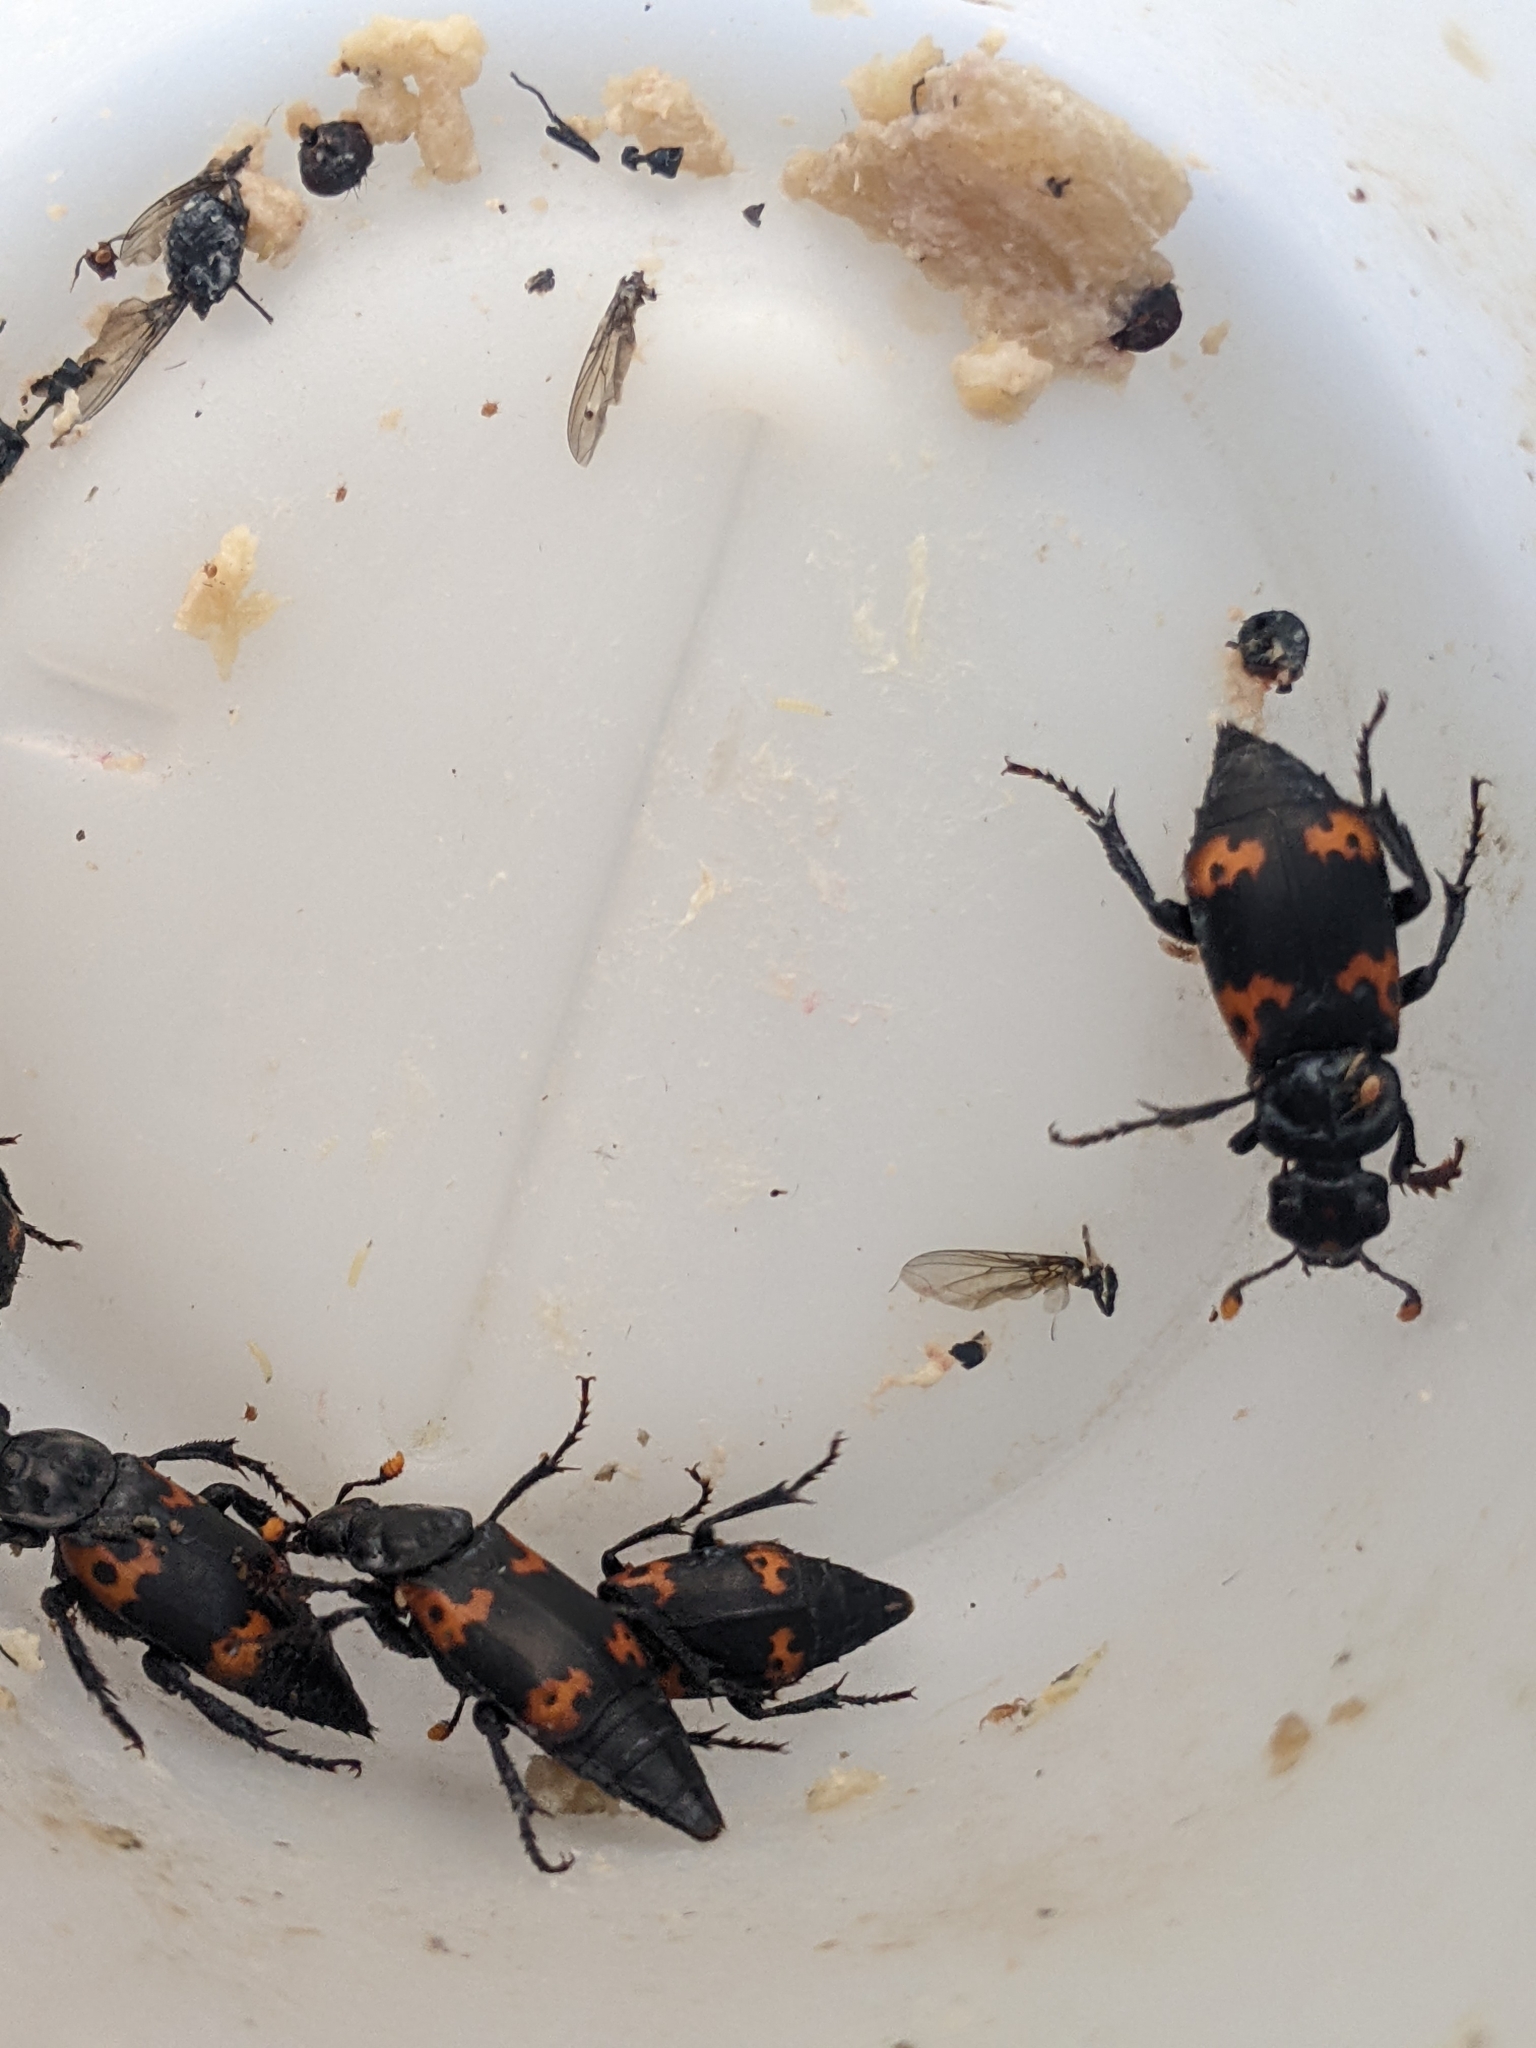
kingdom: Animalia
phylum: Arthropoda
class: Insecta
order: Coleoptera
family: Staphylinidae
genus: Nicrophorus
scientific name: Nicrophorus nepalensis
